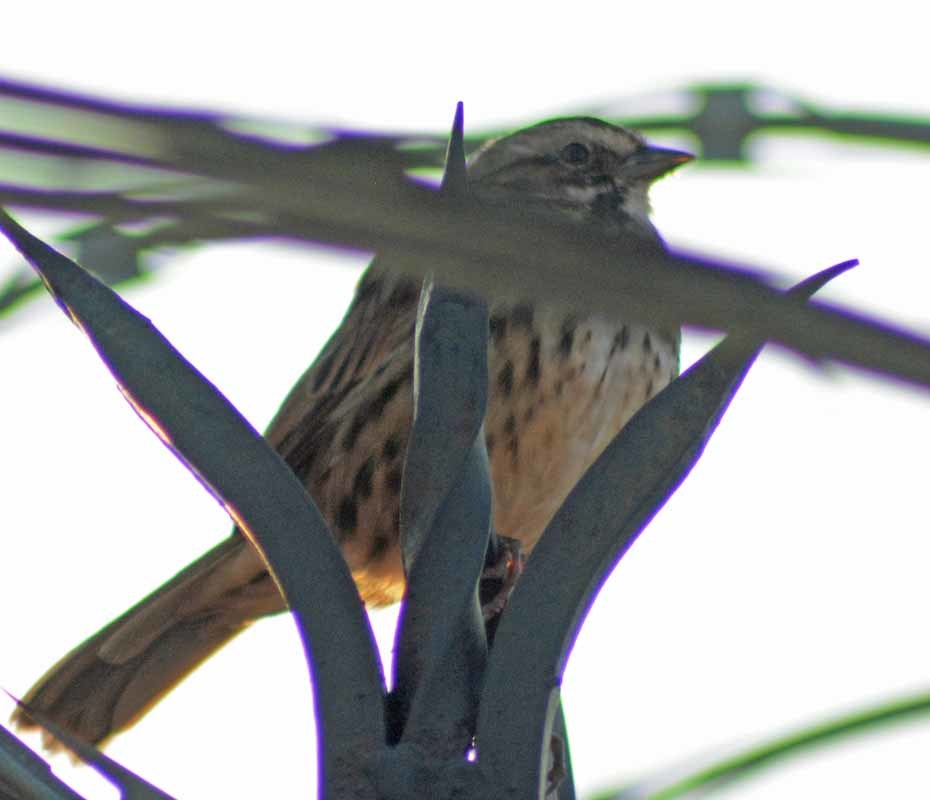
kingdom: Animalia
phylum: Chordata
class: Aves
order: Passeriformes
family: Passerellidae
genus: Melospiza
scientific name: Melospiza melodia
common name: Song sparrow
